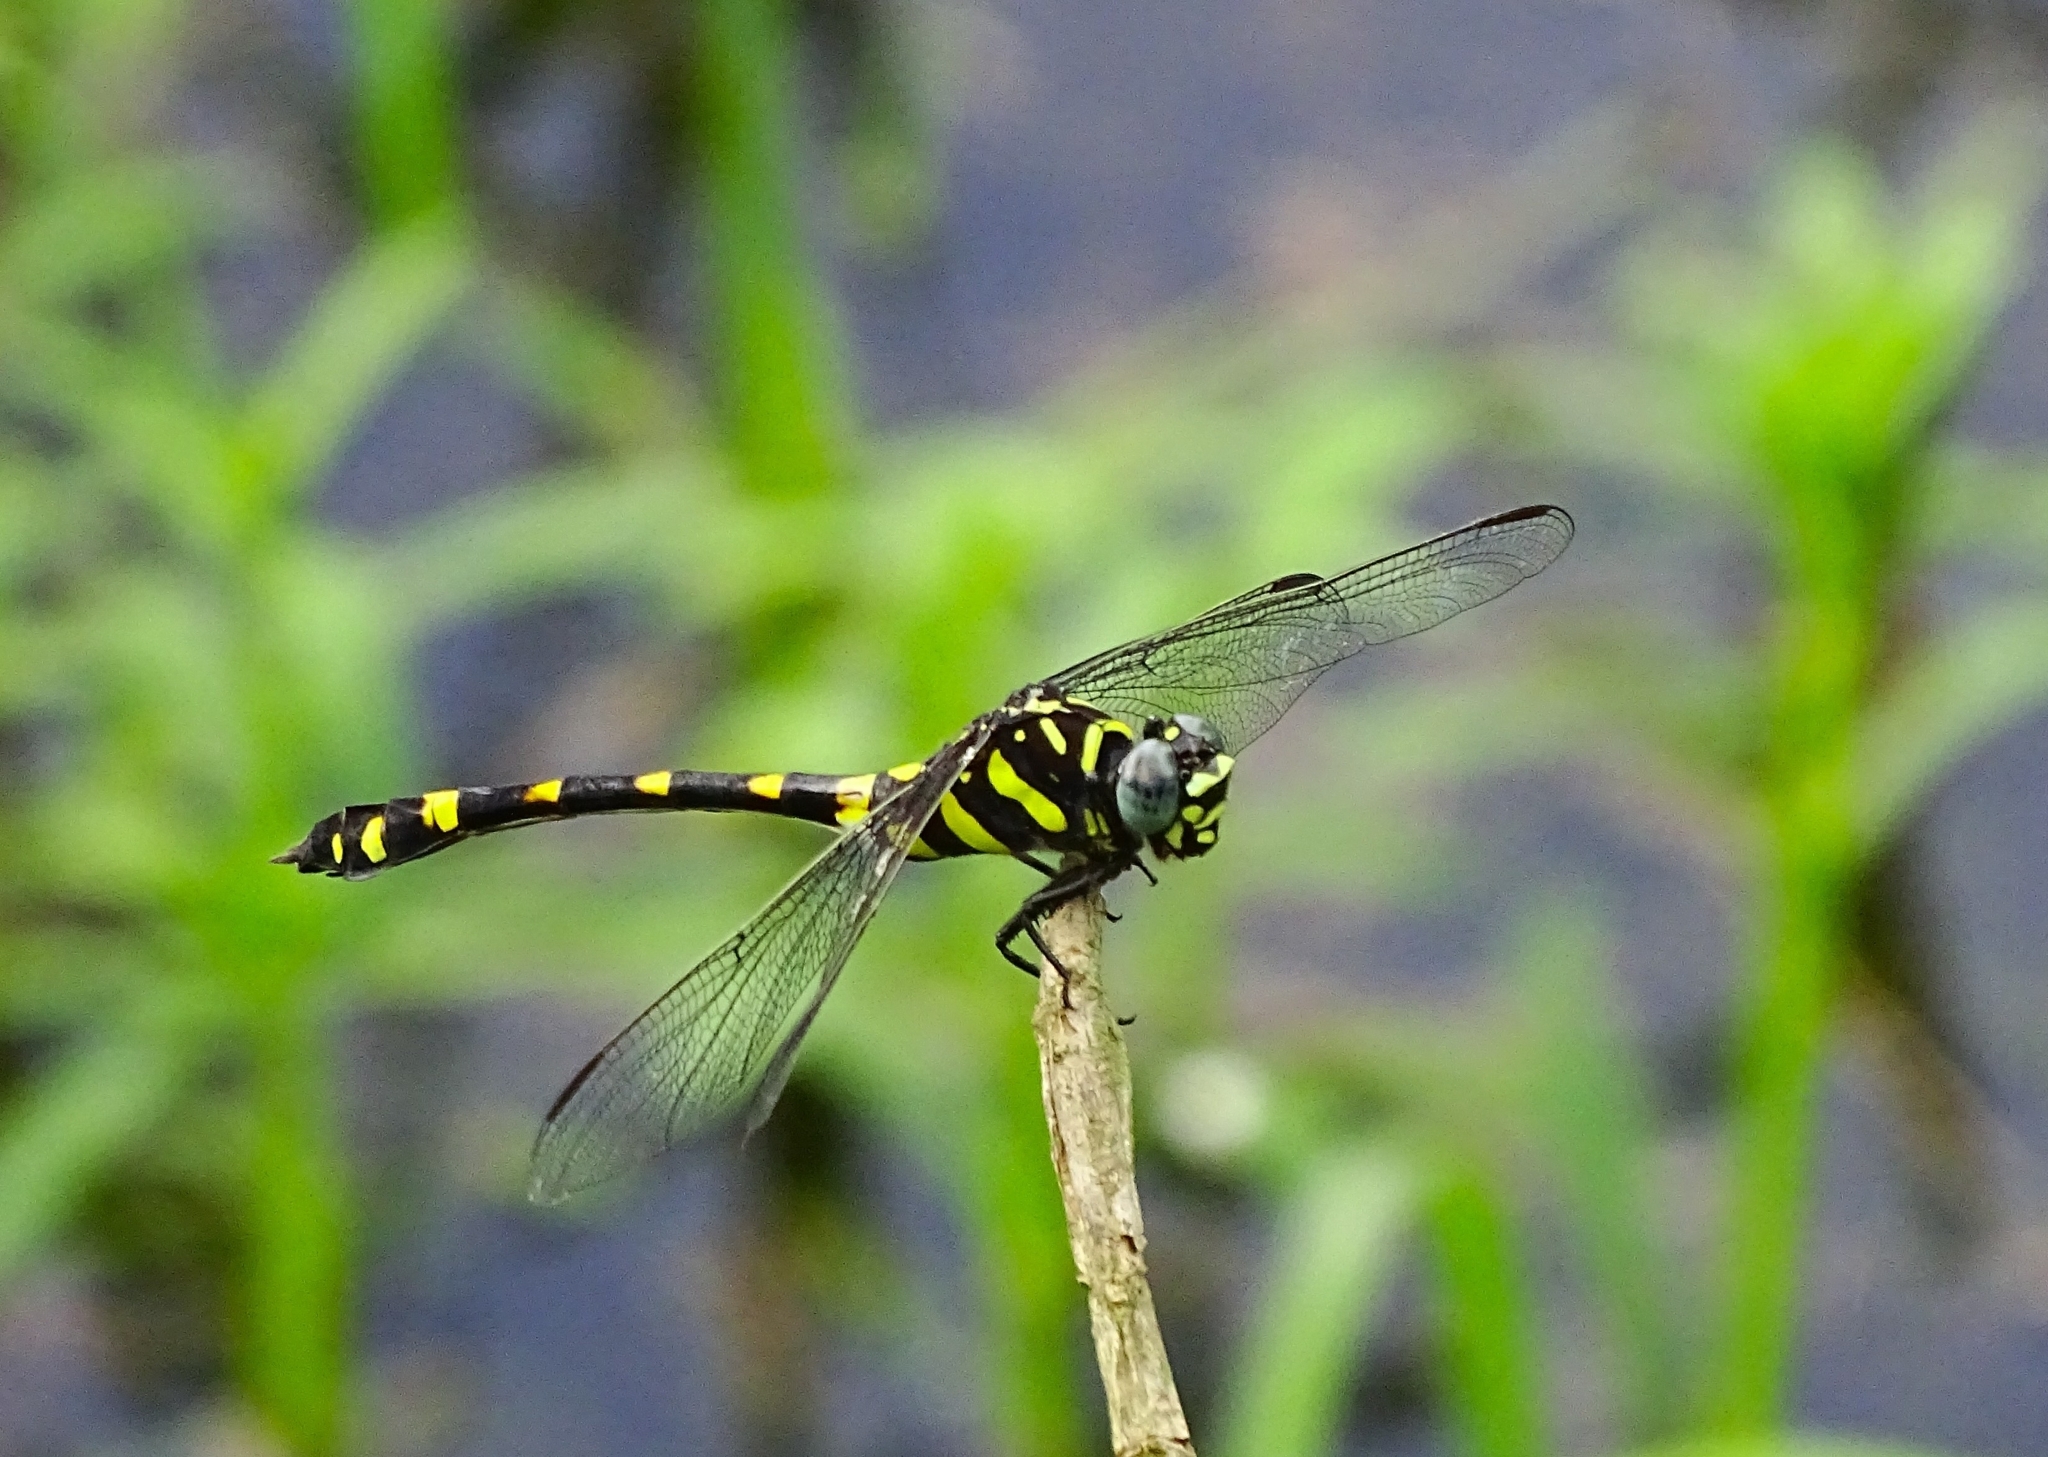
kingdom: Animalia
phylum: Arthropoda
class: Insecta
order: Odonata
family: Gomphidae
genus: Ictinogomphus
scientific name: Ictinogomphus rapax
